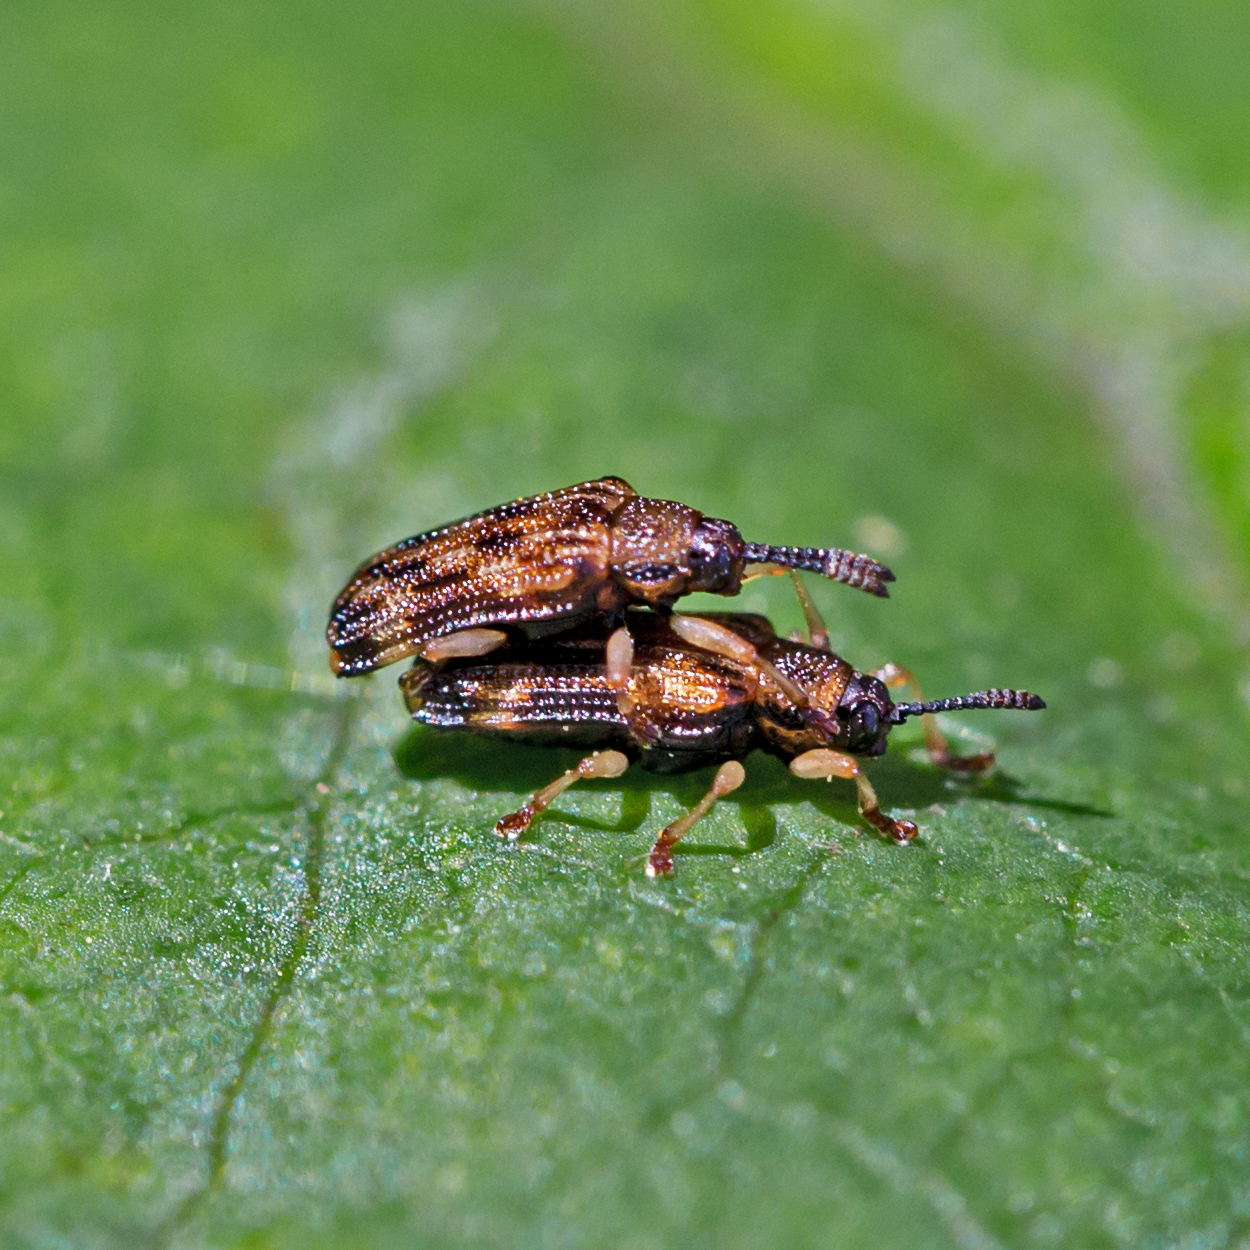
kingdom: Animalia
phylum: Arthropoda
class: Insecta
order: Coleoptera
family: Chrysomelidae
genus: Sumitrosis
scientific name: Sumitrosis inaequalis
